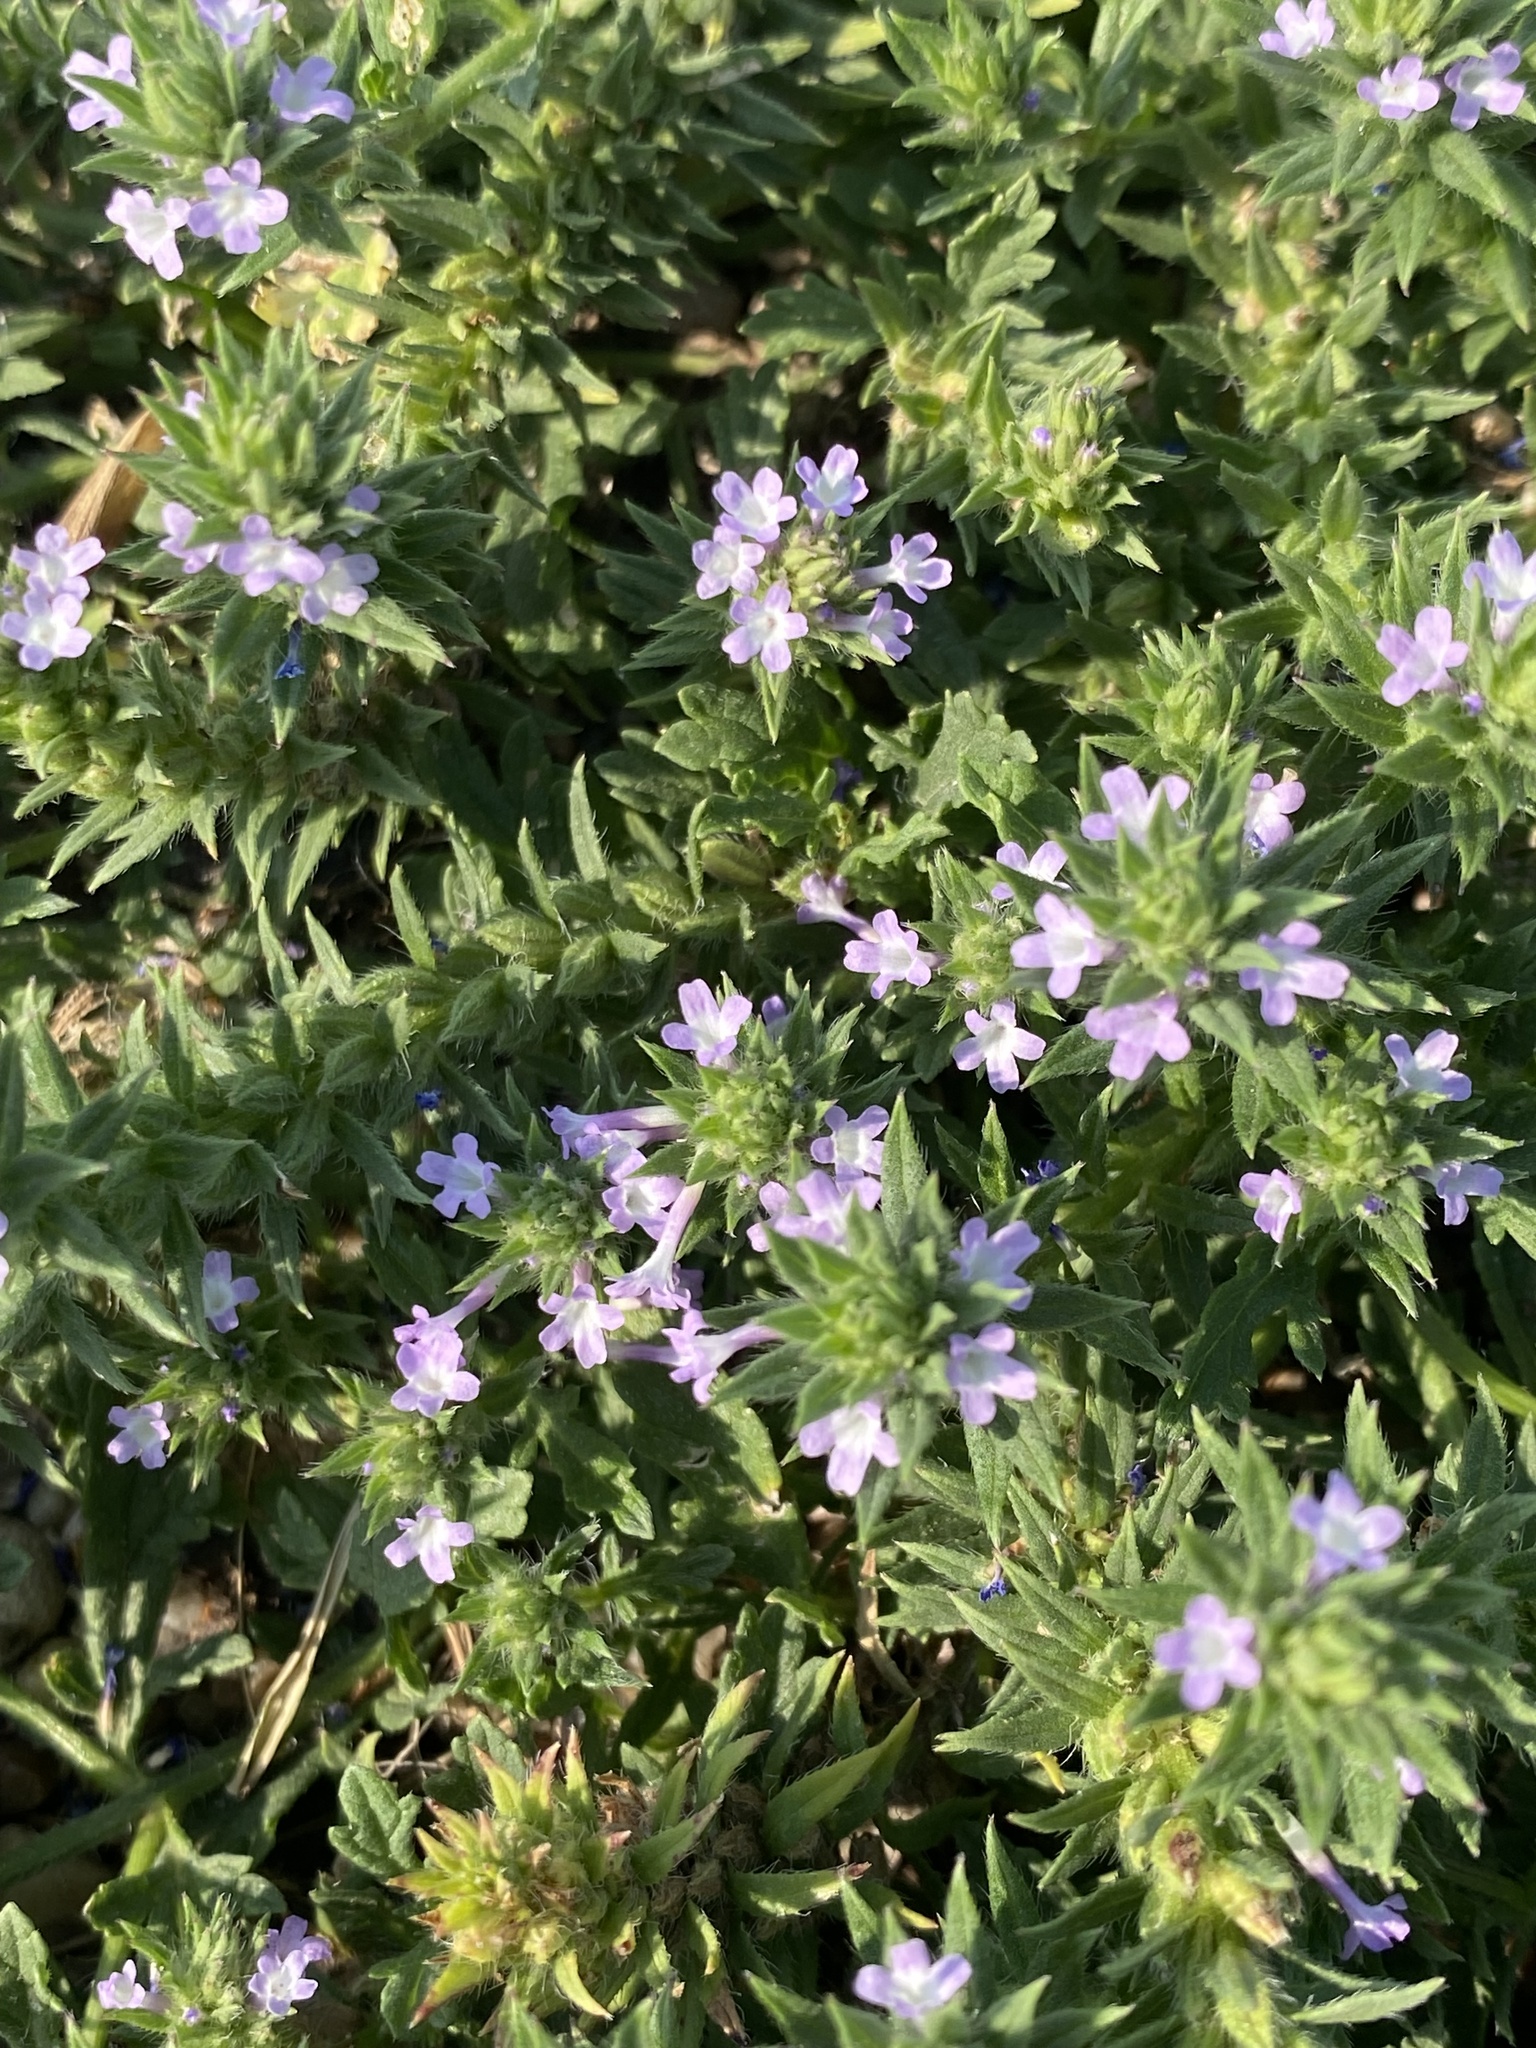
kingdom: Plantae
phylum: Tracheophyta
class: Magnoliopsida
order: Lamiales
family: Verbenaceae
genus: Verbena
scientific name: Verbena bracteata
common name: Bracted vervain
